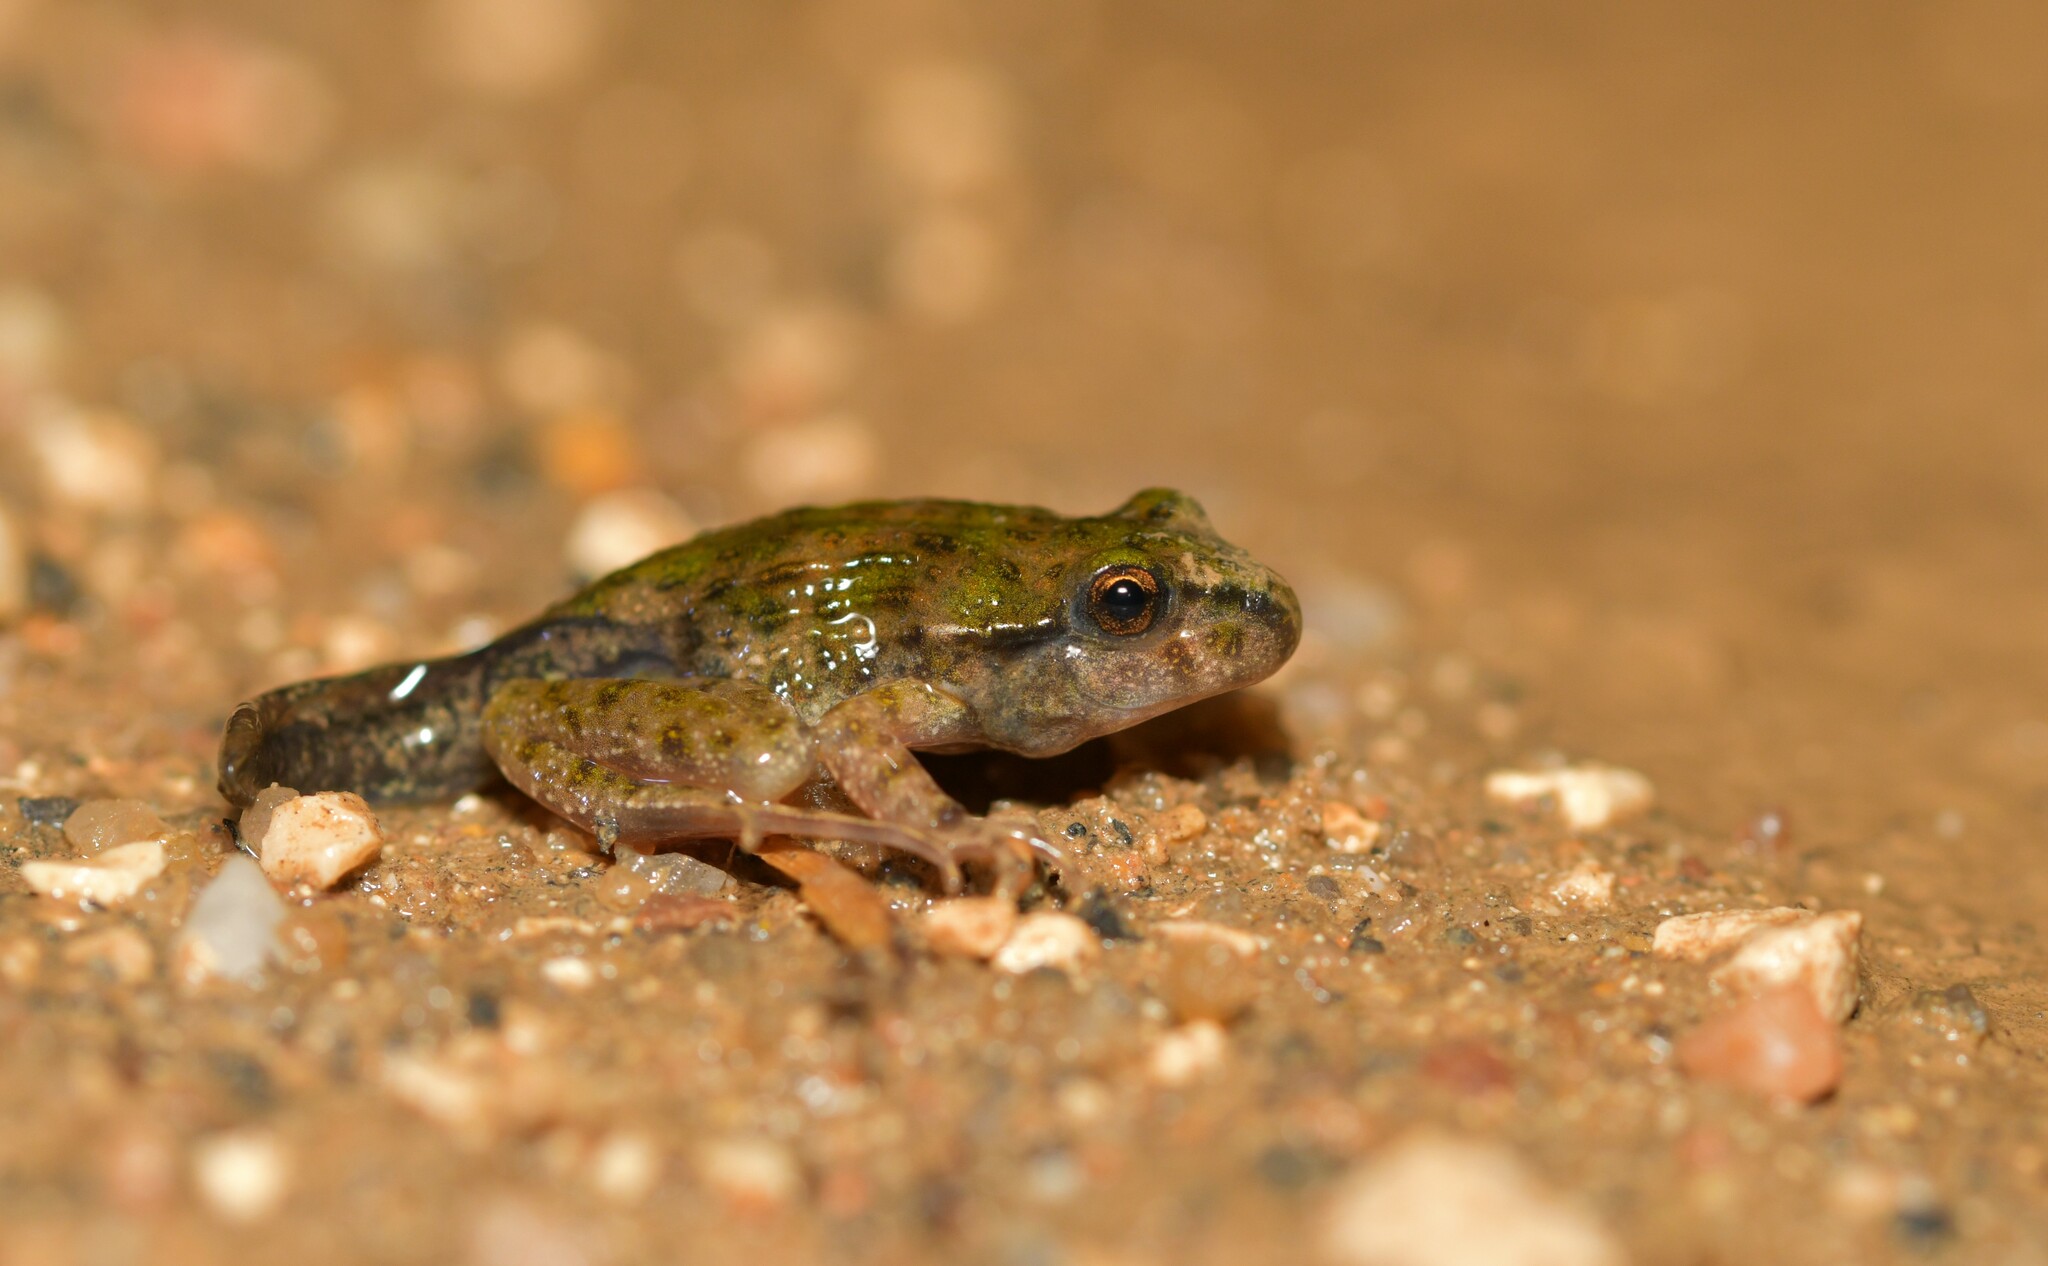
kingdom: Animalia
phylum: Chordata
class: Amphibia
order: Anura
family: Pelodytidae
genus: Pelodytes
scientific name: Pelodytes atlanticus
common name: Lusitanian parsley frog
